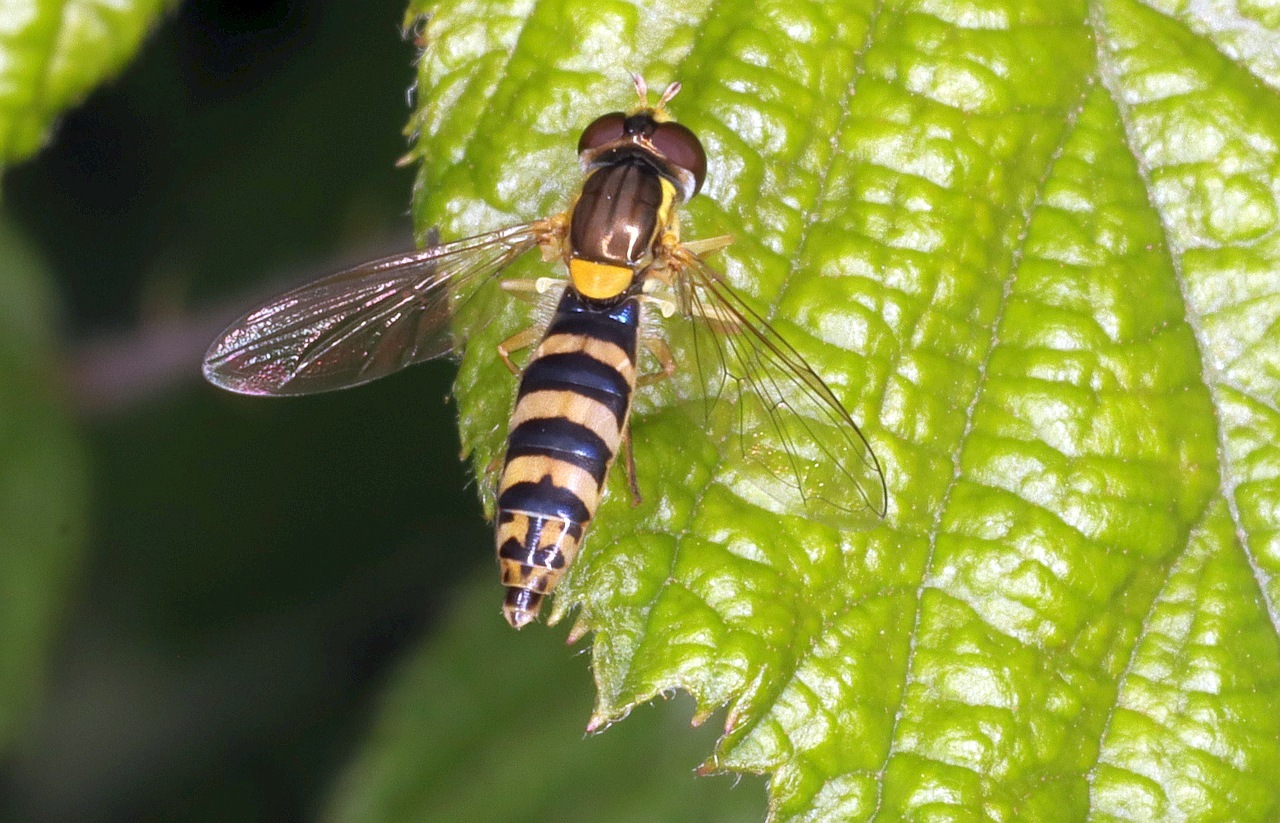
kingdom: Animalia
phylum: Arthropoda
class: Insecta
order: Diptera
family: Syrphidae
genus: Sphaerophoria
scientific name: Sphaerophoria
